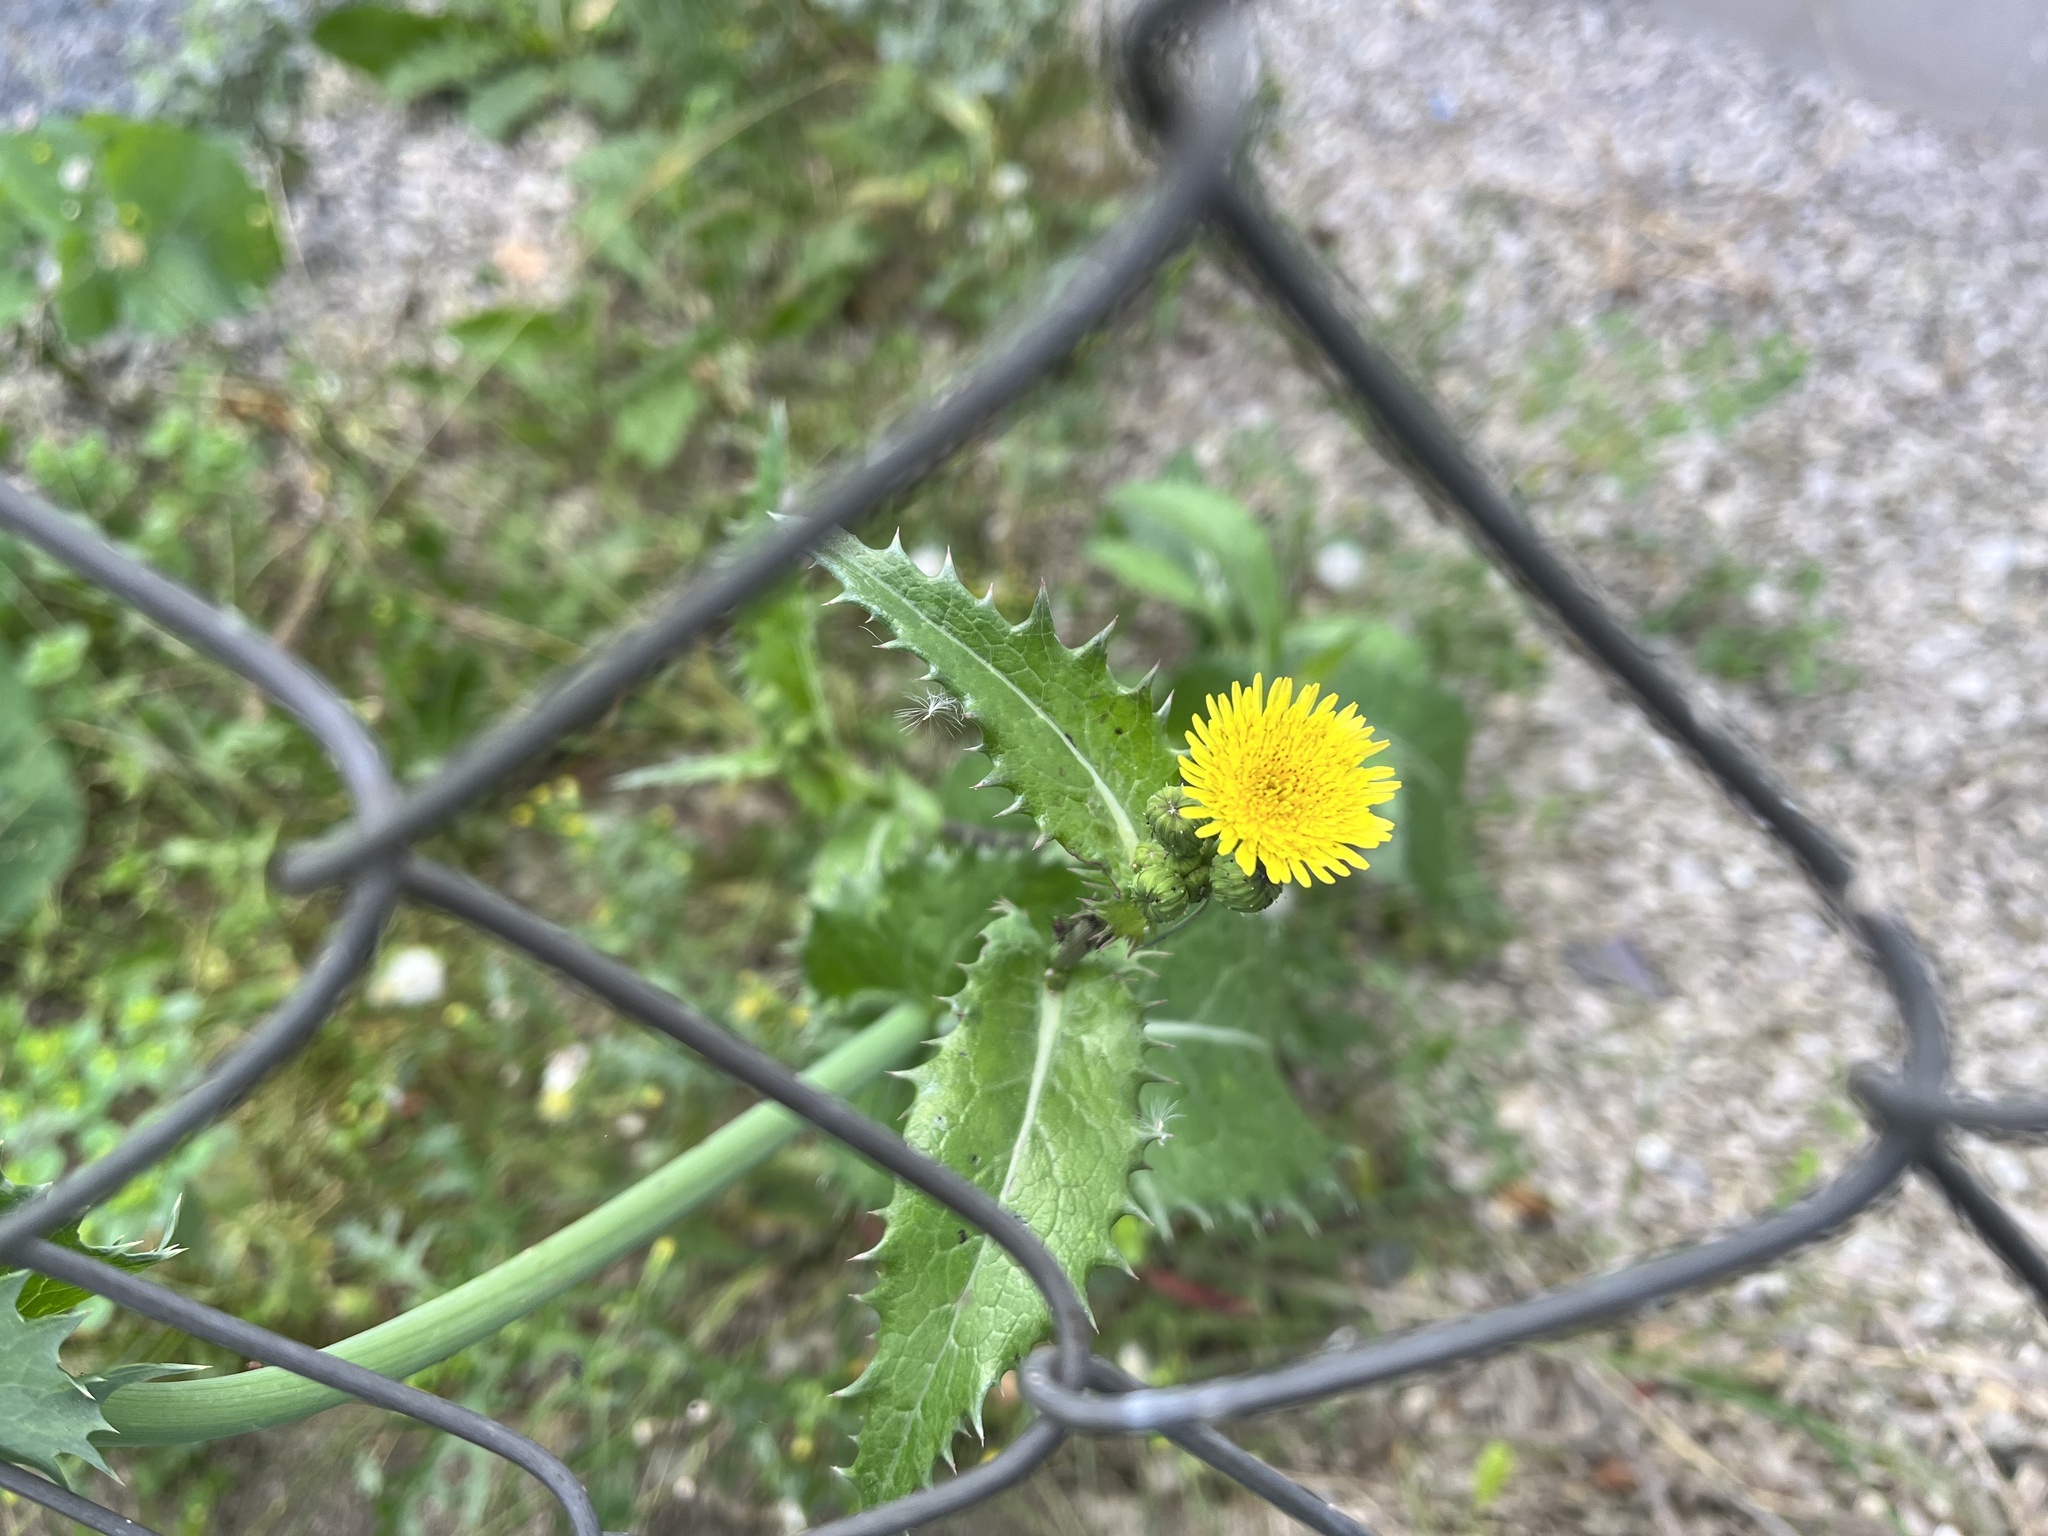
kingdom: Plantae
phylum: Tracheophyta
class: Magnoliopsida
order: Asterales
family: Asteraceae
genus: Sonchus
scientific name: Sonchus asper
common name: Prickly sow-thistle
